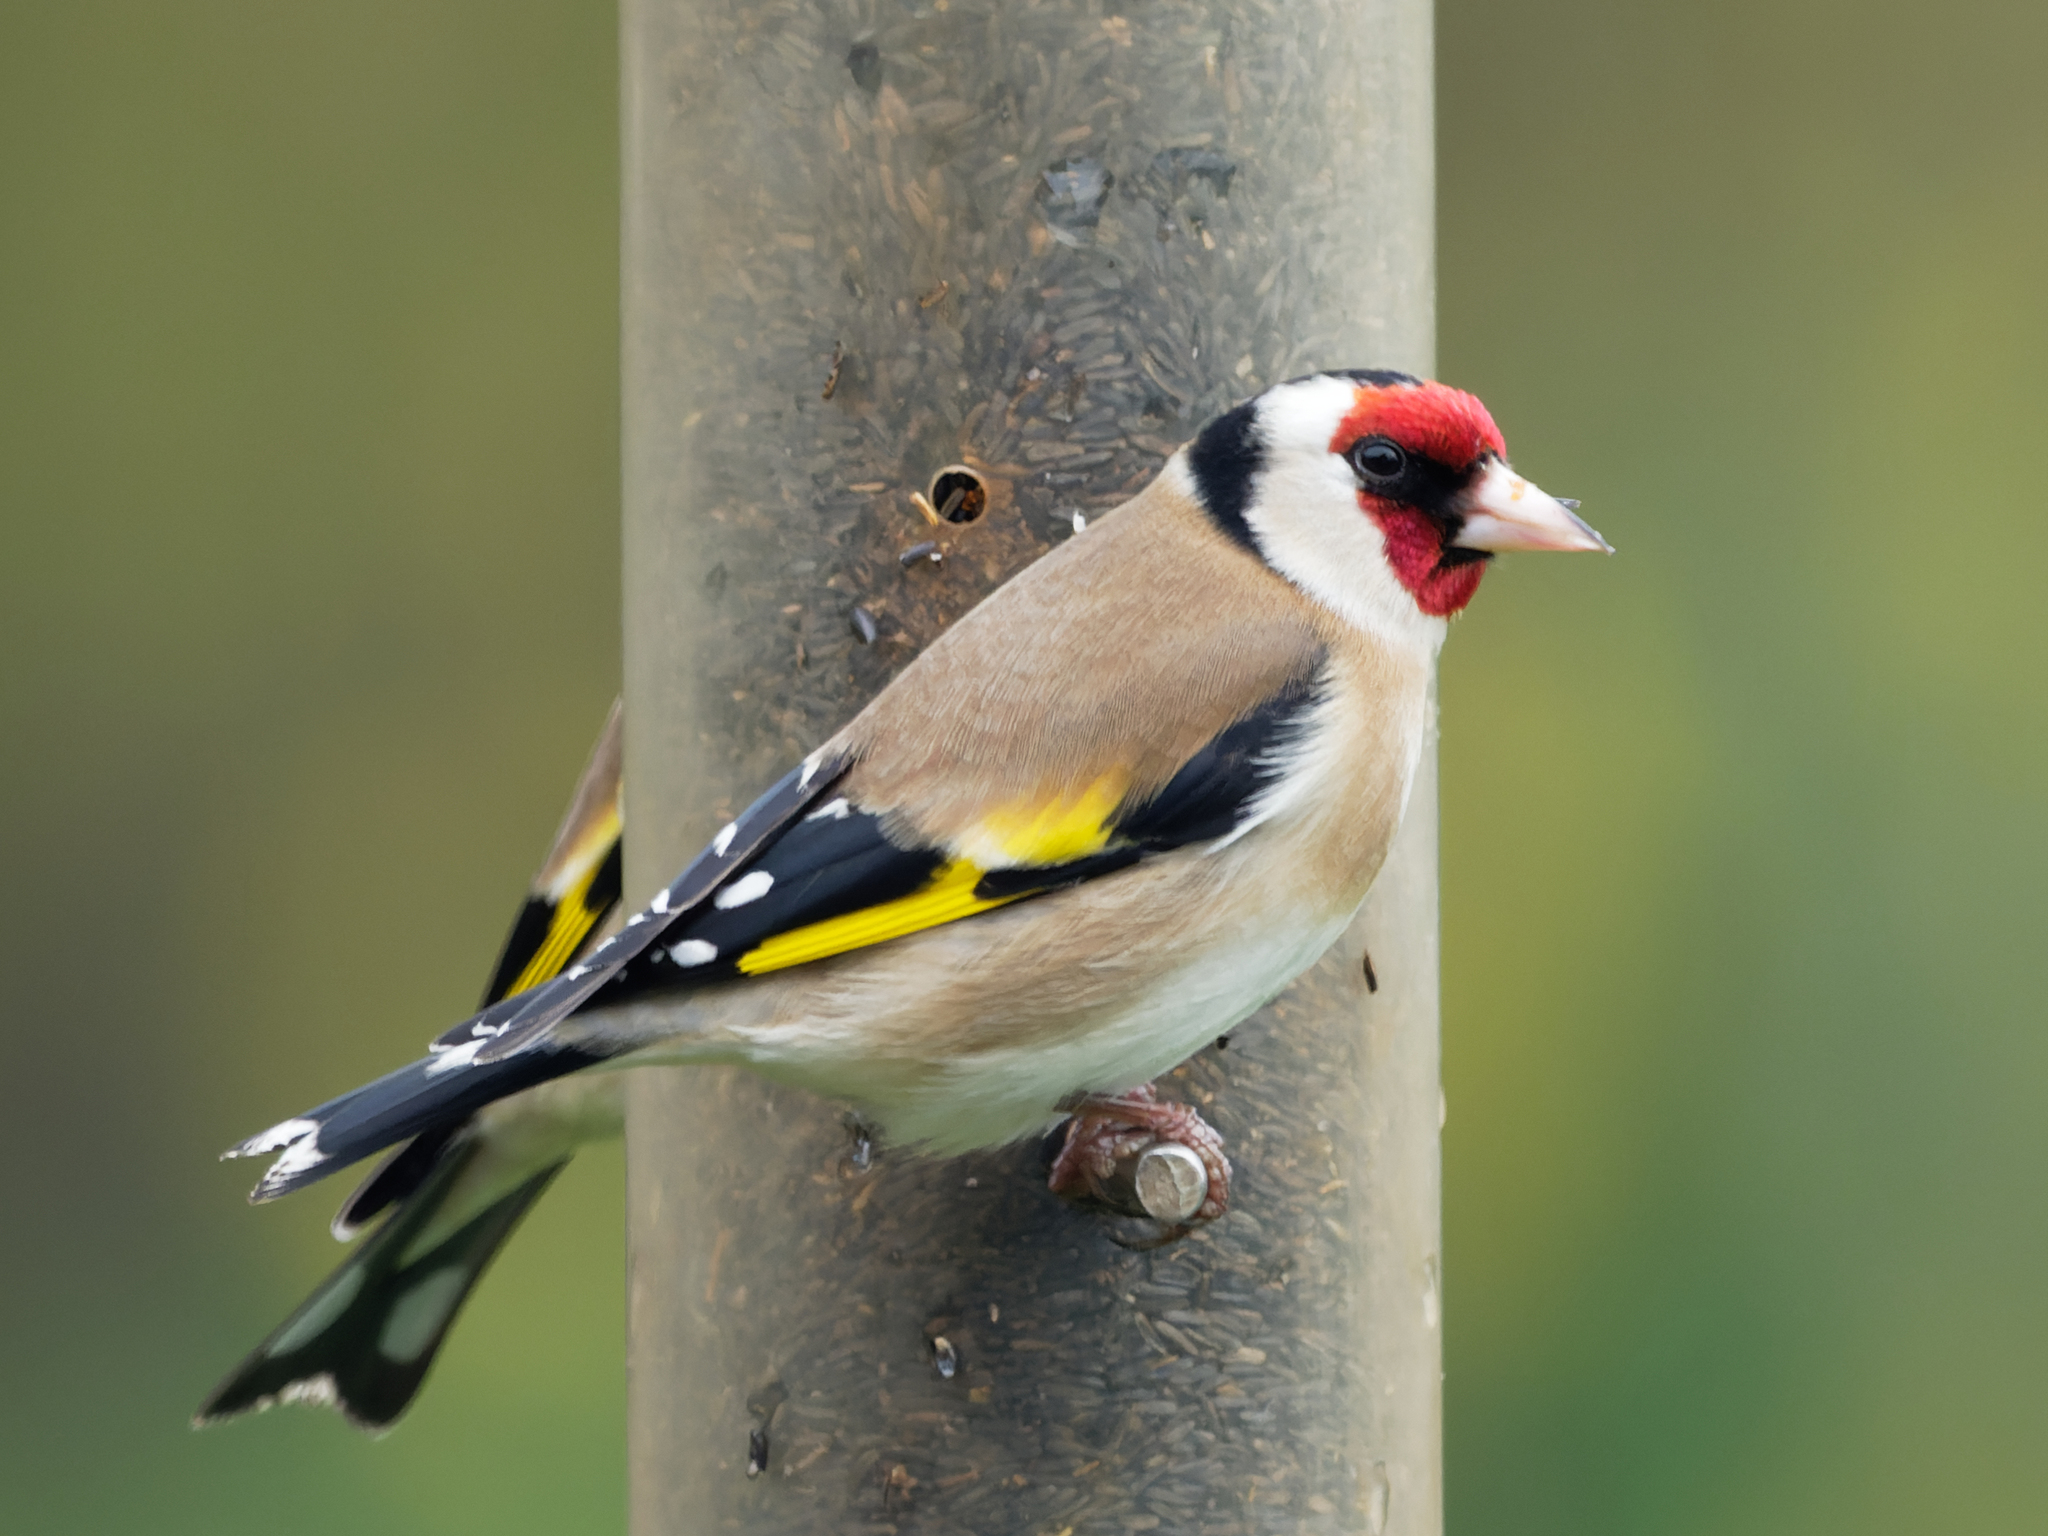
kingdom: Animalia
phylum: Chordata
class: Aves
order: Passeriformes
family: Fringillidae
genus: Carduelis
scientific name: Carduelis carduelis
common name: European goldfinch
